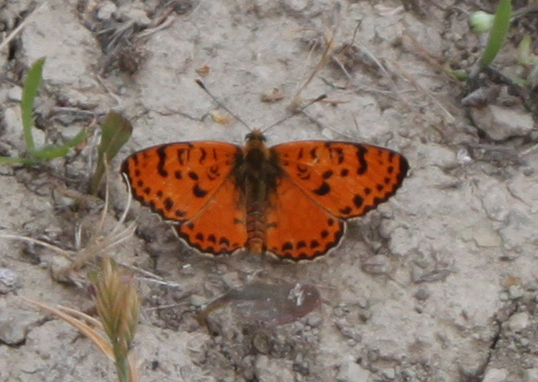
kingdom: Animalia
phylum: Arthropoda
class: Insecta
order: Lepidoptera
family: Nymphalidae
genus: Melitaea
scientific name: Melitaea didyma
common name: Spotted fritillary
